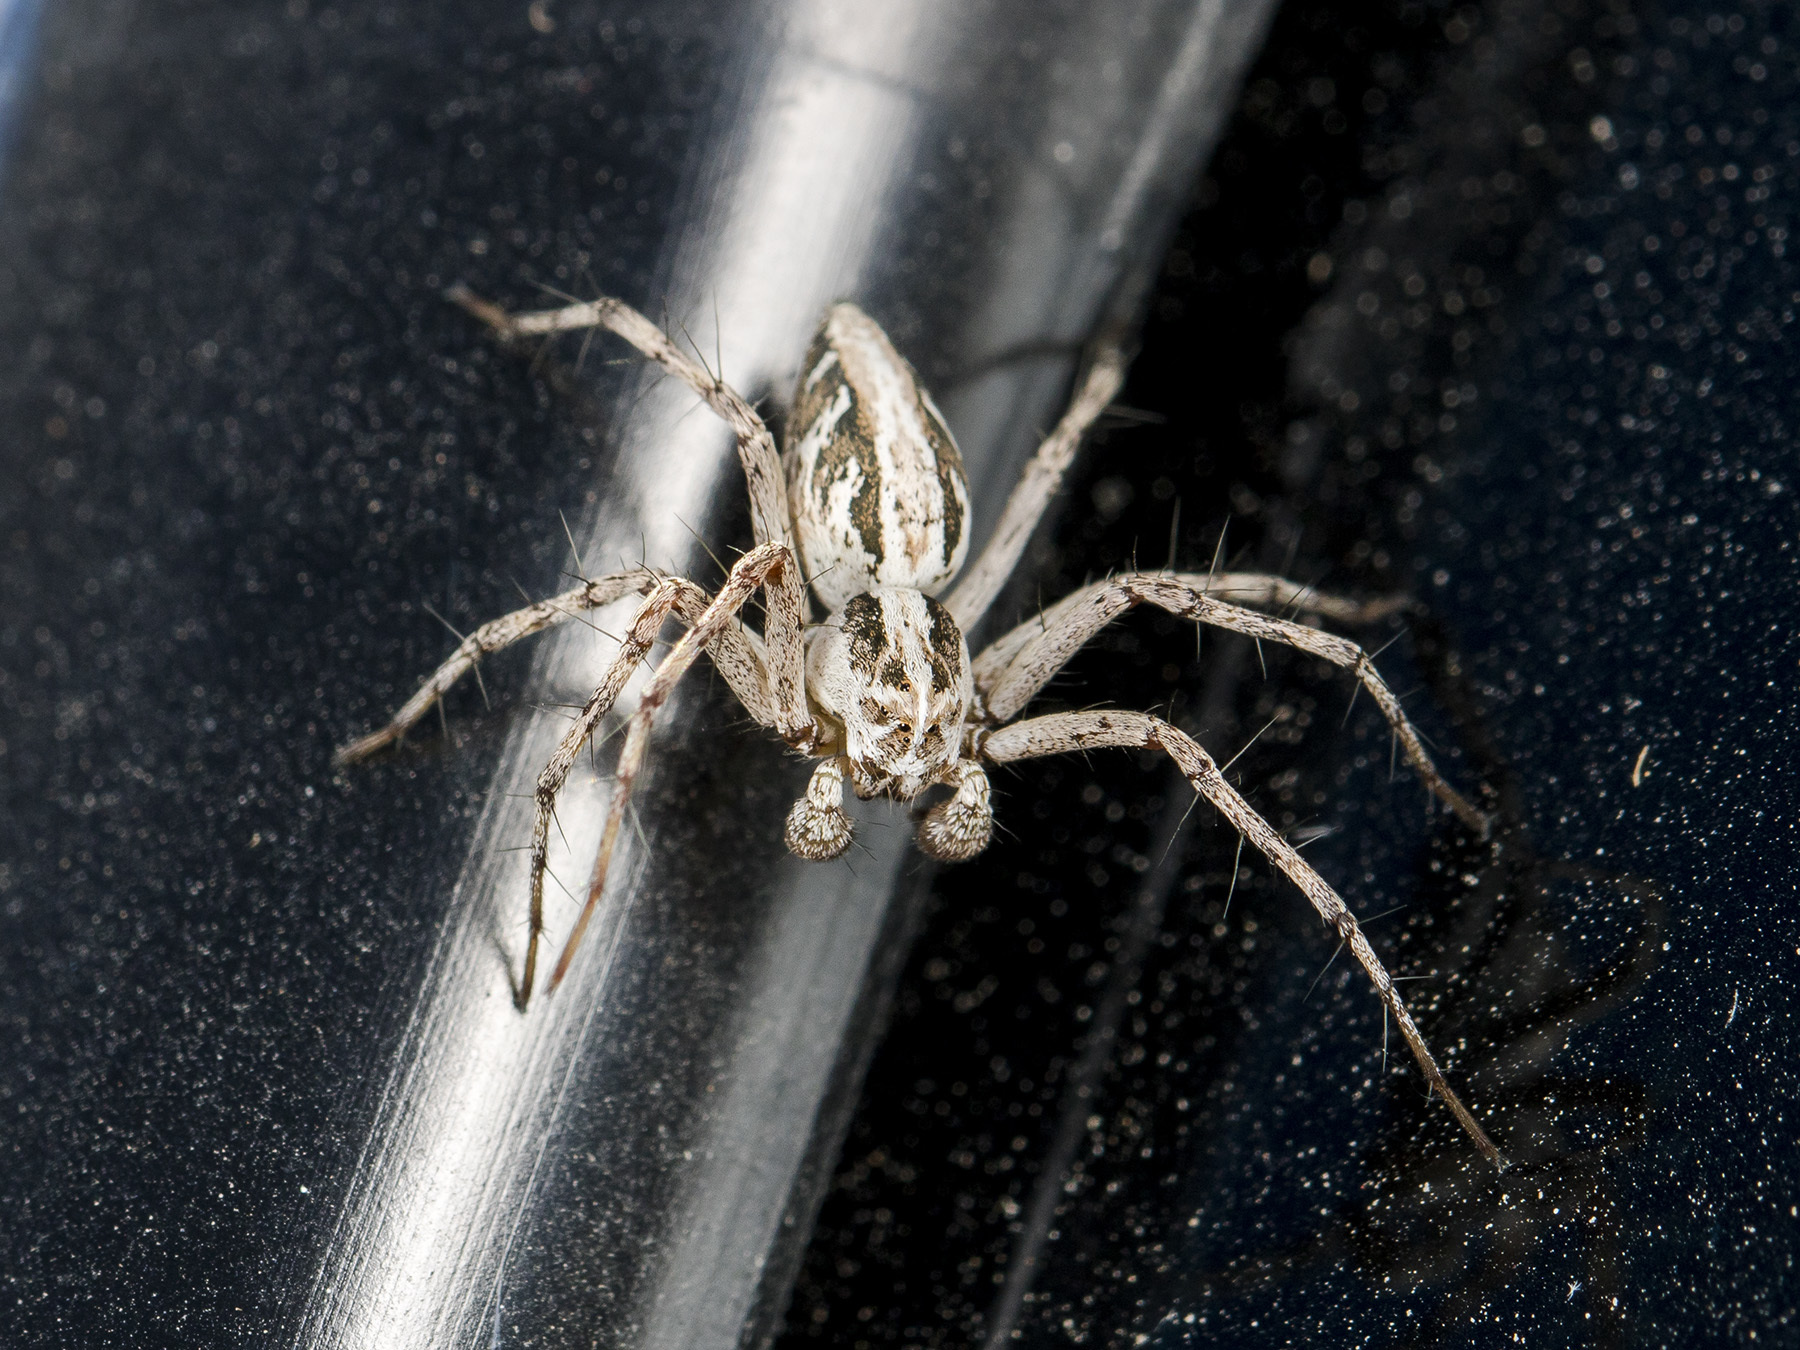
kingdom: Animalia
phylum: Arthropoda
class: Arachnida
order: Araneae
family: Oxyopidae
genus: Oxyopes
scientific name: Oxyopes globifer
